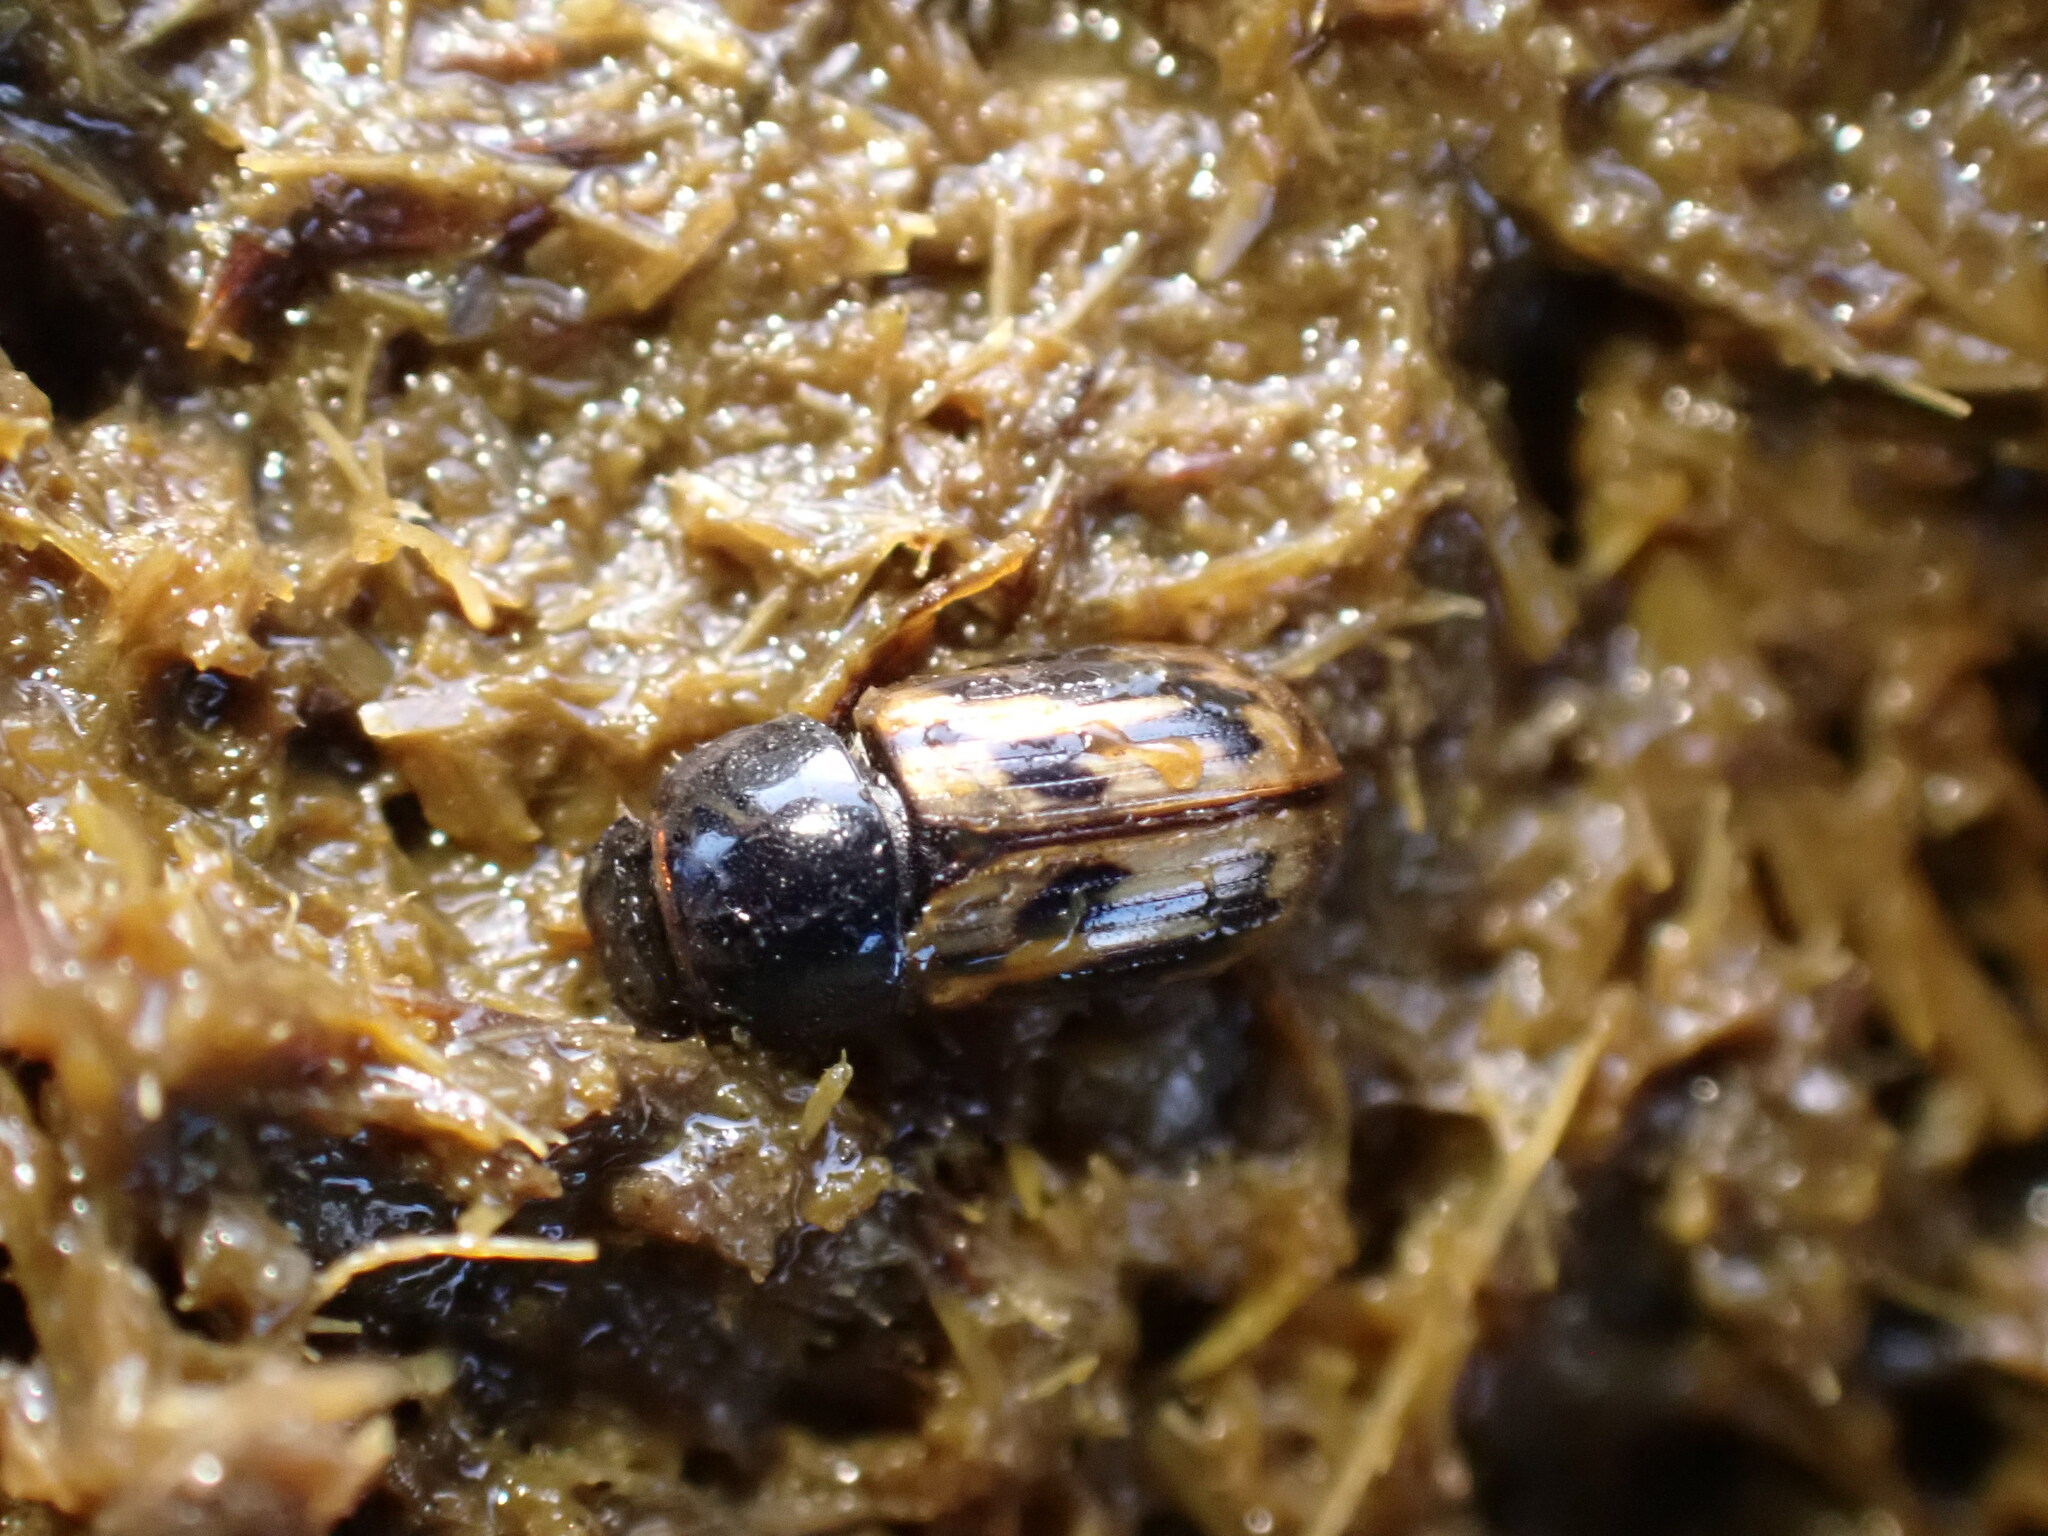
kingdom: Animalia
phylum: Arthropoda
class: Insecta
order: Coleoptera
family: Scarabaeidae
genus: Chilothorax
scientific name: Chilothorax distinctus
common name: Maculated dung beetle
